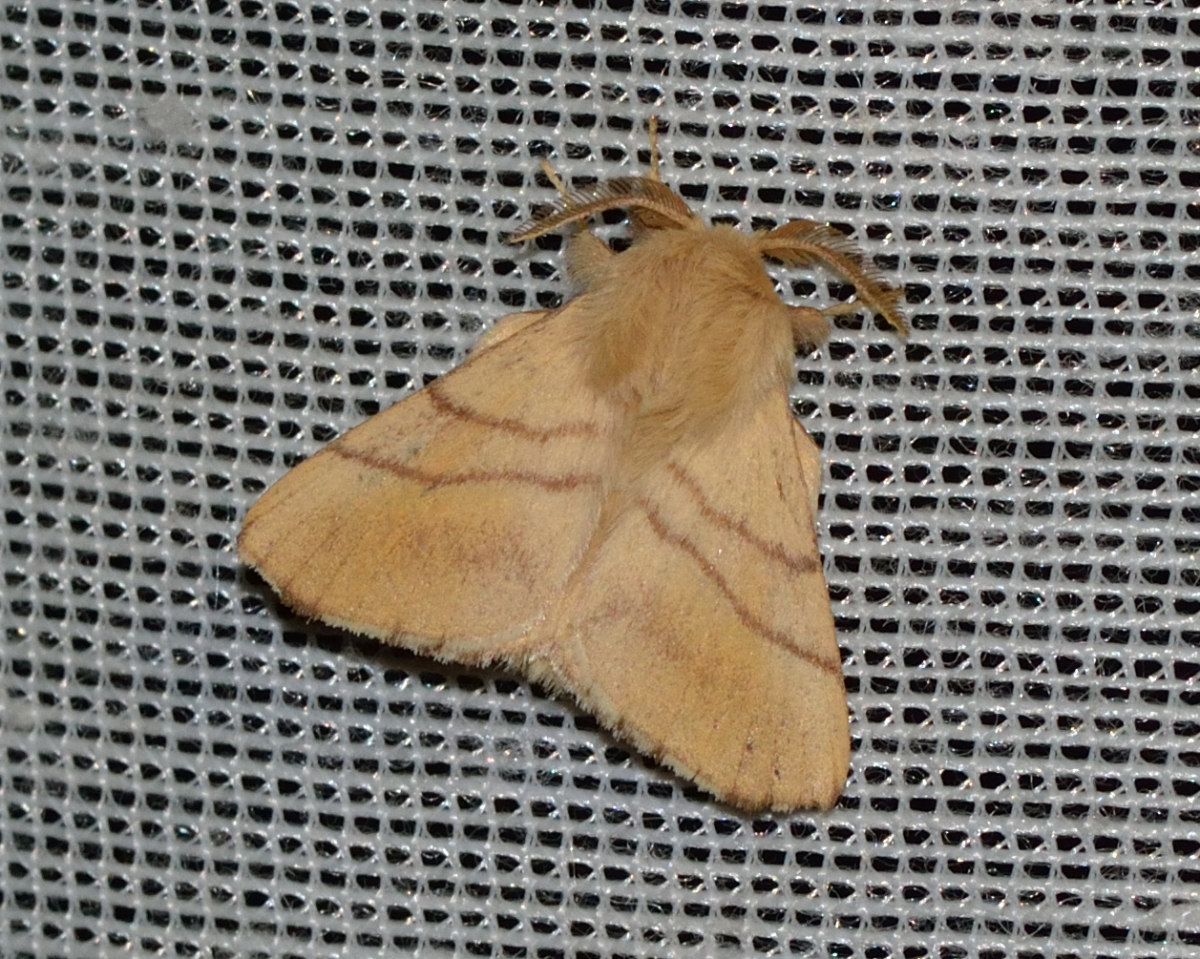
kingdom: Animalia
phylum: Arthropoda
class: Insecta
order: Lepidoptera
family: Lasiocampidae
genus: Malacosoma
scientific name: Malacosoma neustria
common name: The lackey
